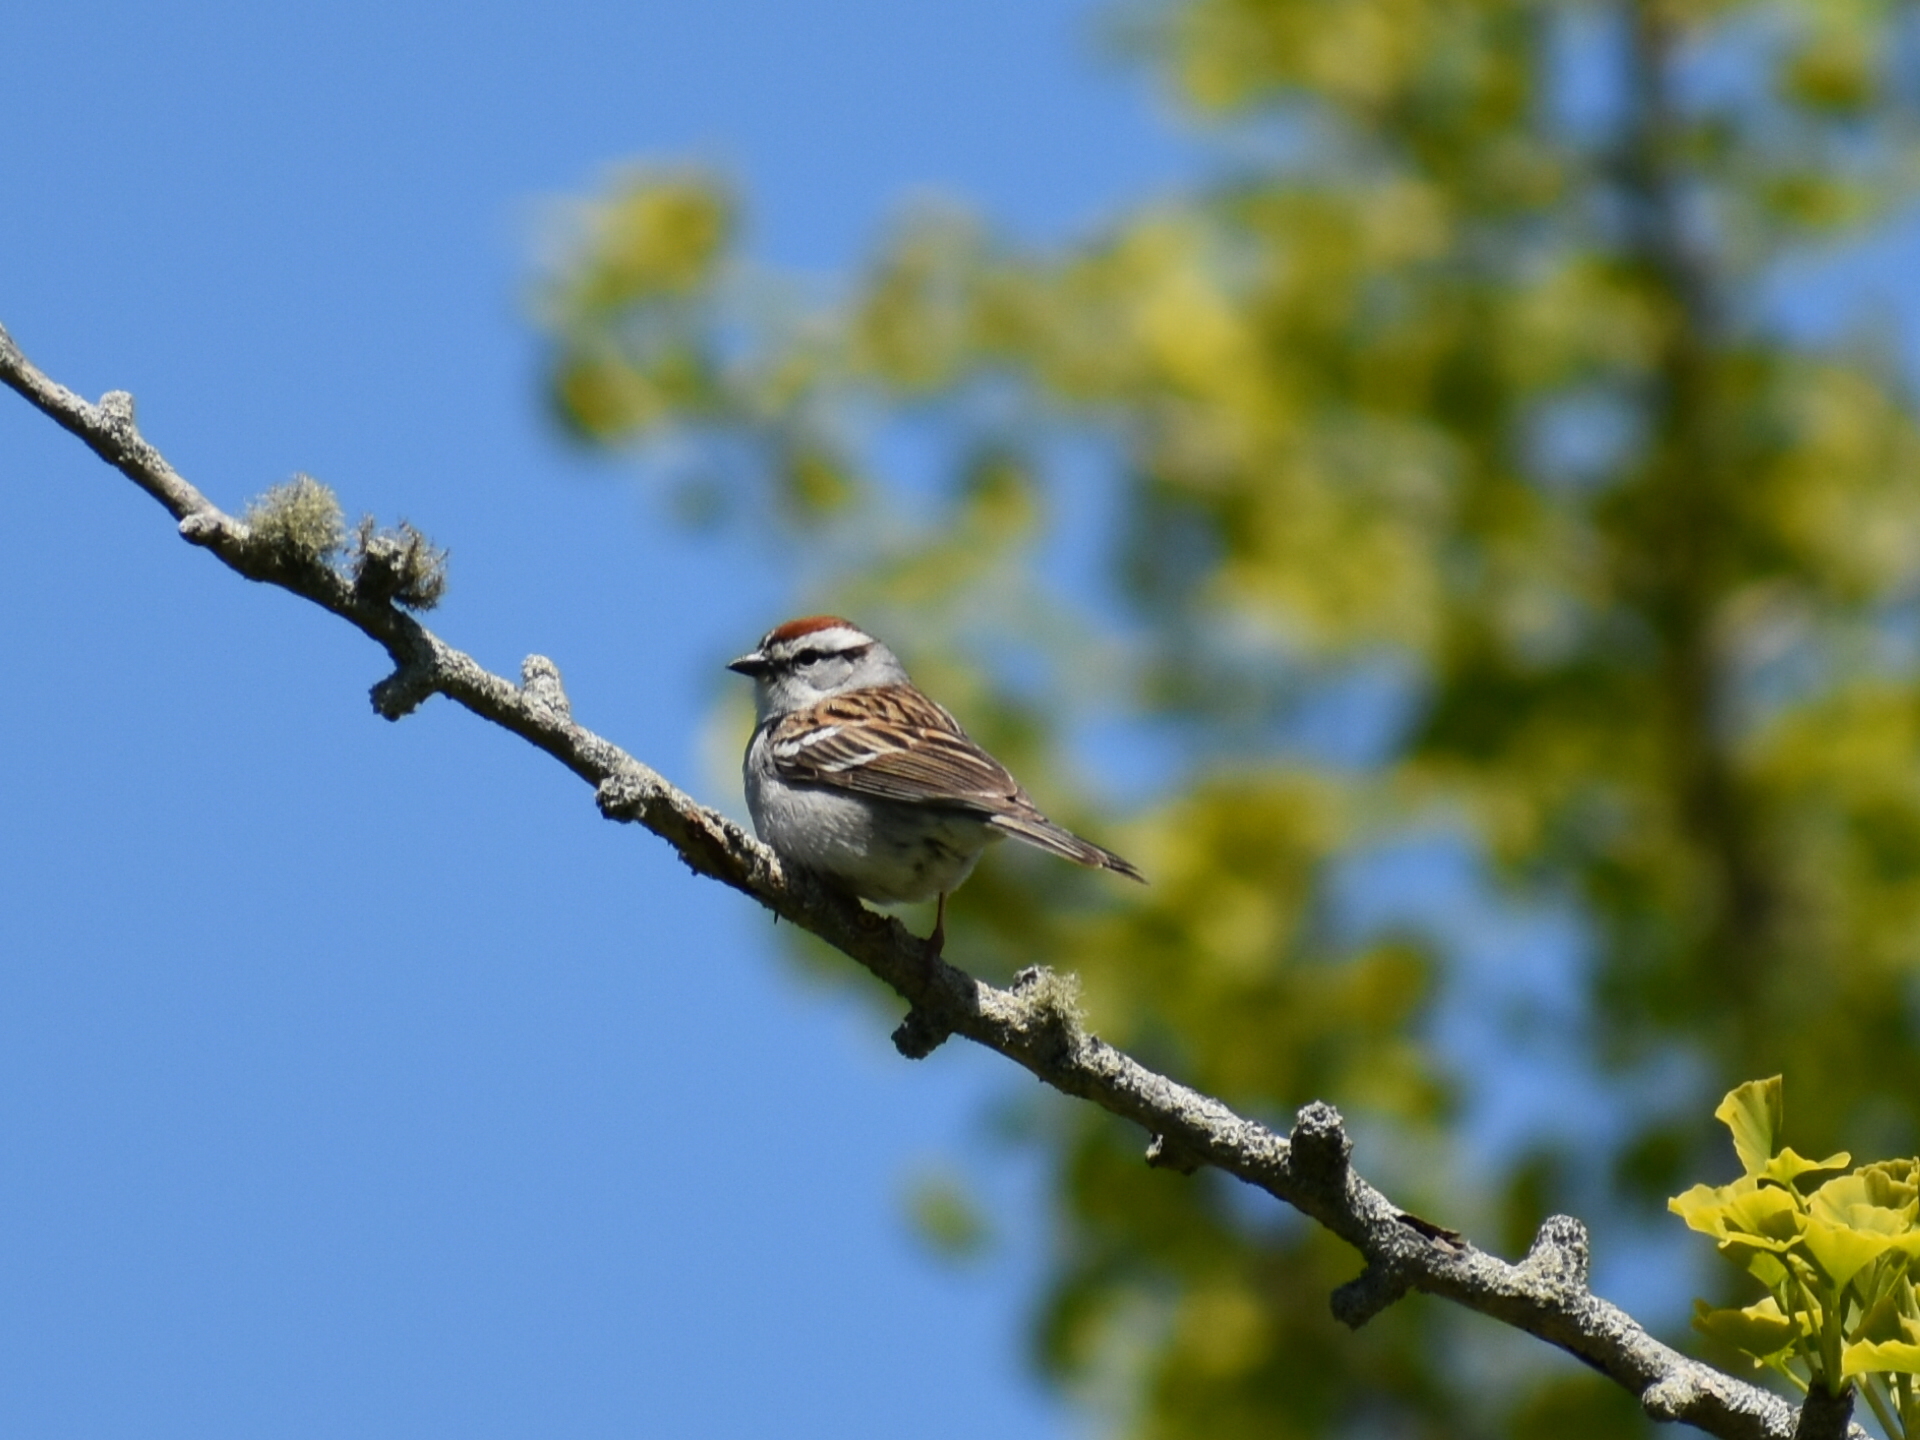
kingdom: Animalia
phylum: Chordata
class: Aves
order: Passeriformes
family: Passerellidae
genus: Spizella
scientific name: Spizella passerina
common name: Chipping sparrow
